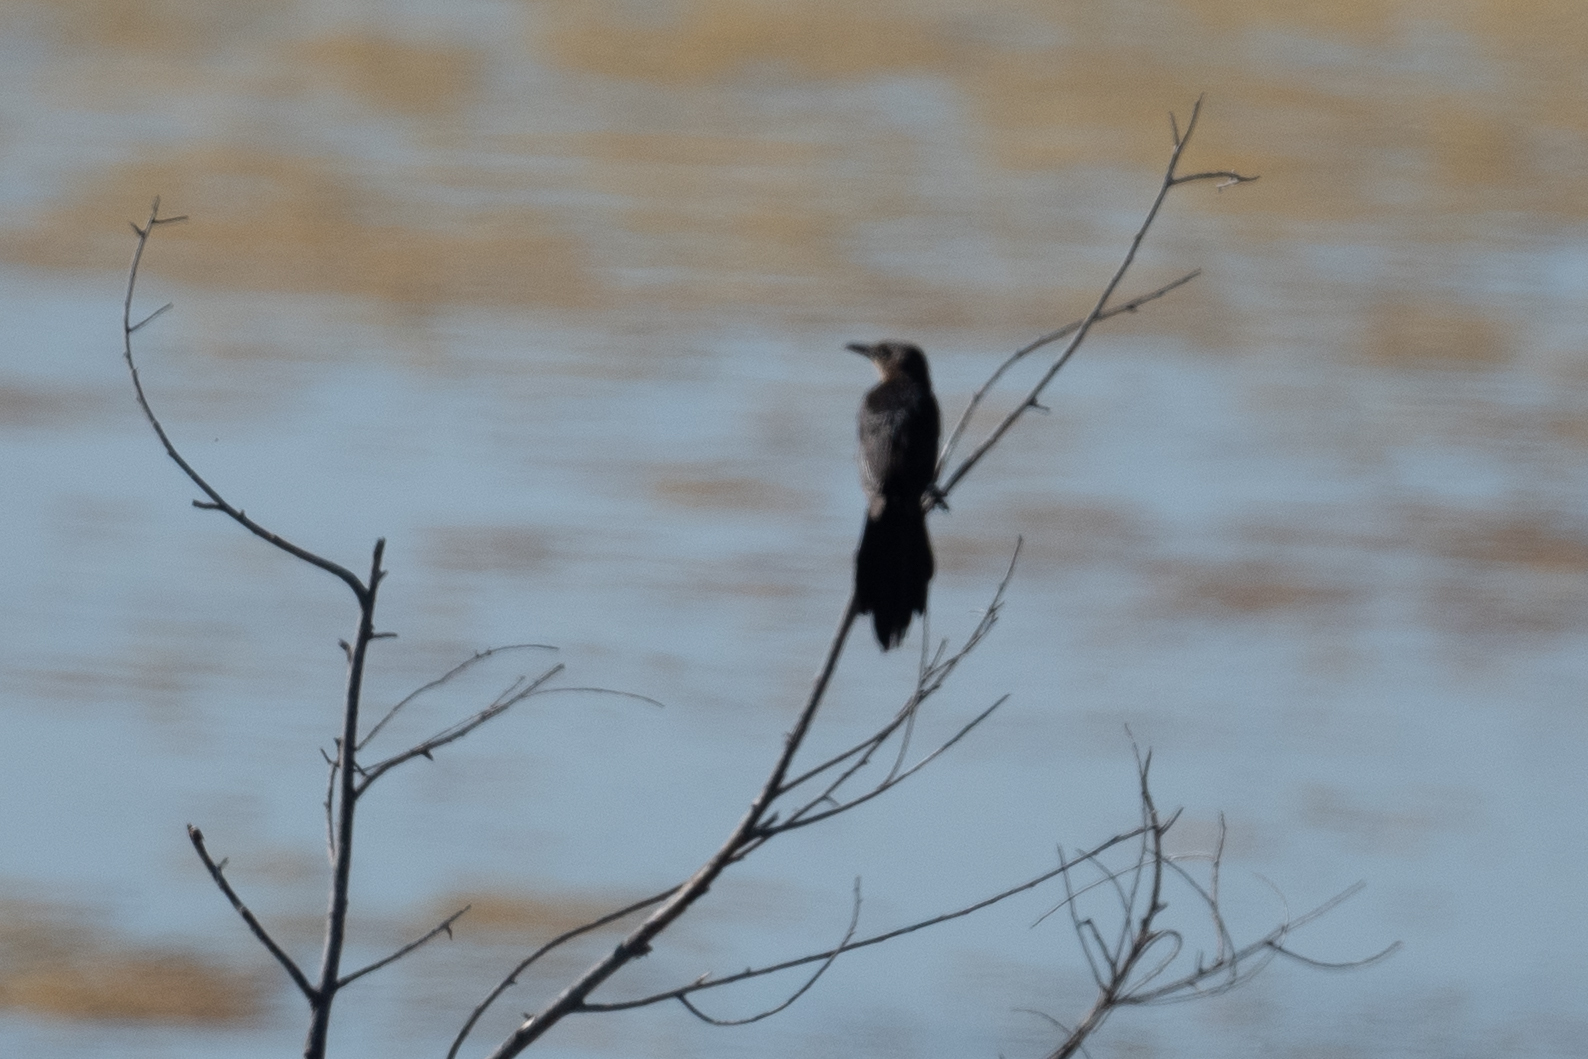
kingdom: Animalia
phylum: Chordata
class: Aves
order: Passeriformes
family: Icteridae
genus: Quiscalus
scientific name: Quiscalus mexicanus
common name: Great-tailed grackle
